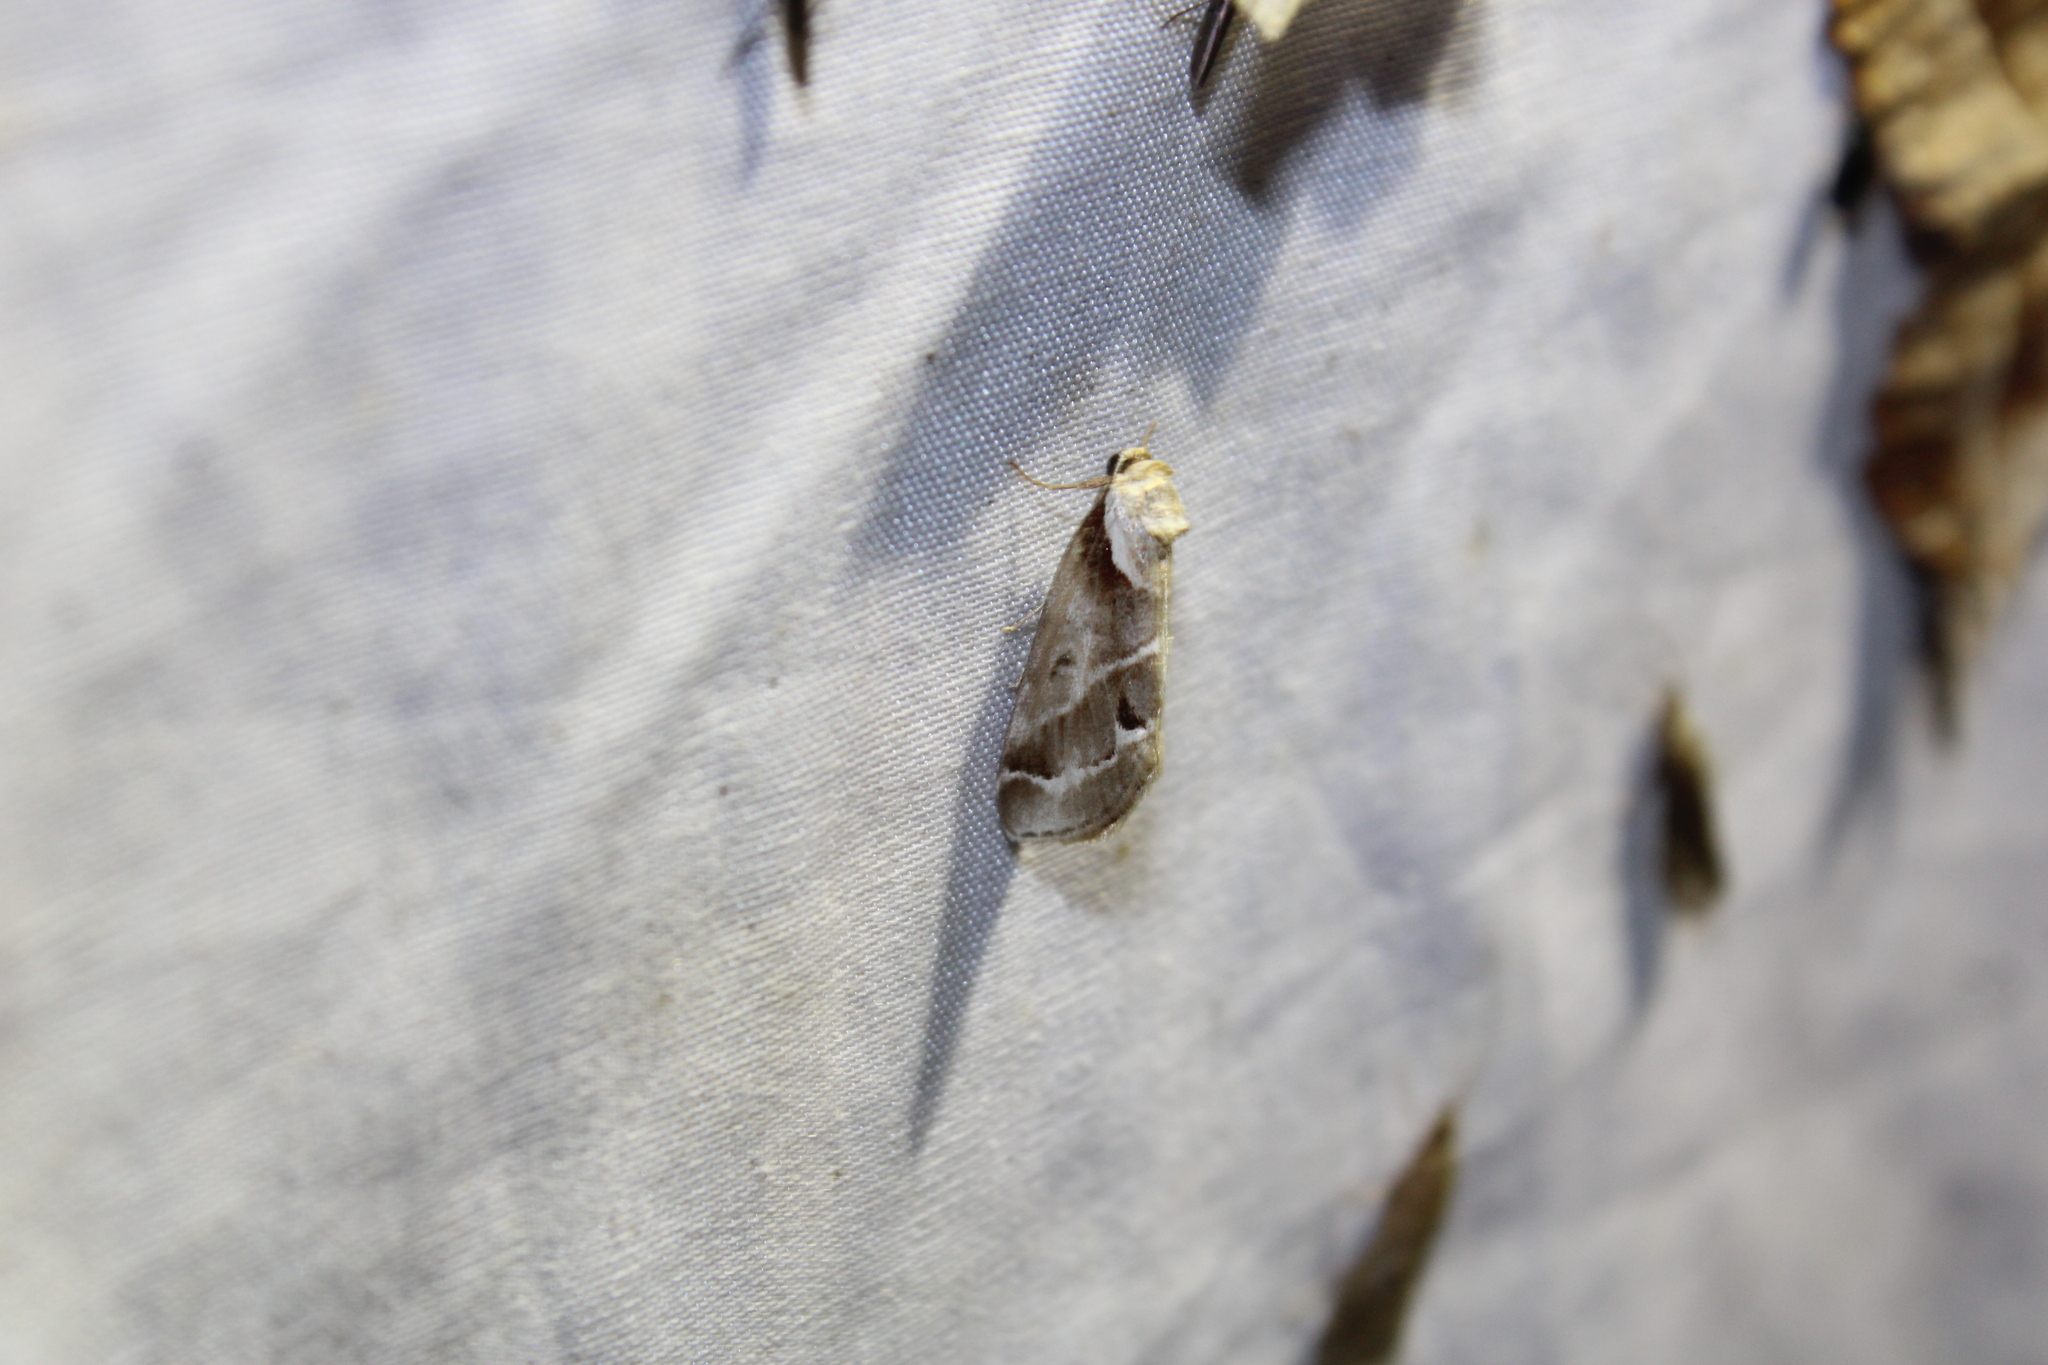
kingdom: Animalia
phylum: Arthropoda
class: Insecta
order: Lepidoptera
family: Nolidae
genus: Baileya
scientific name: Baileya doubledayi
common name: Doubleday's baileya moth
